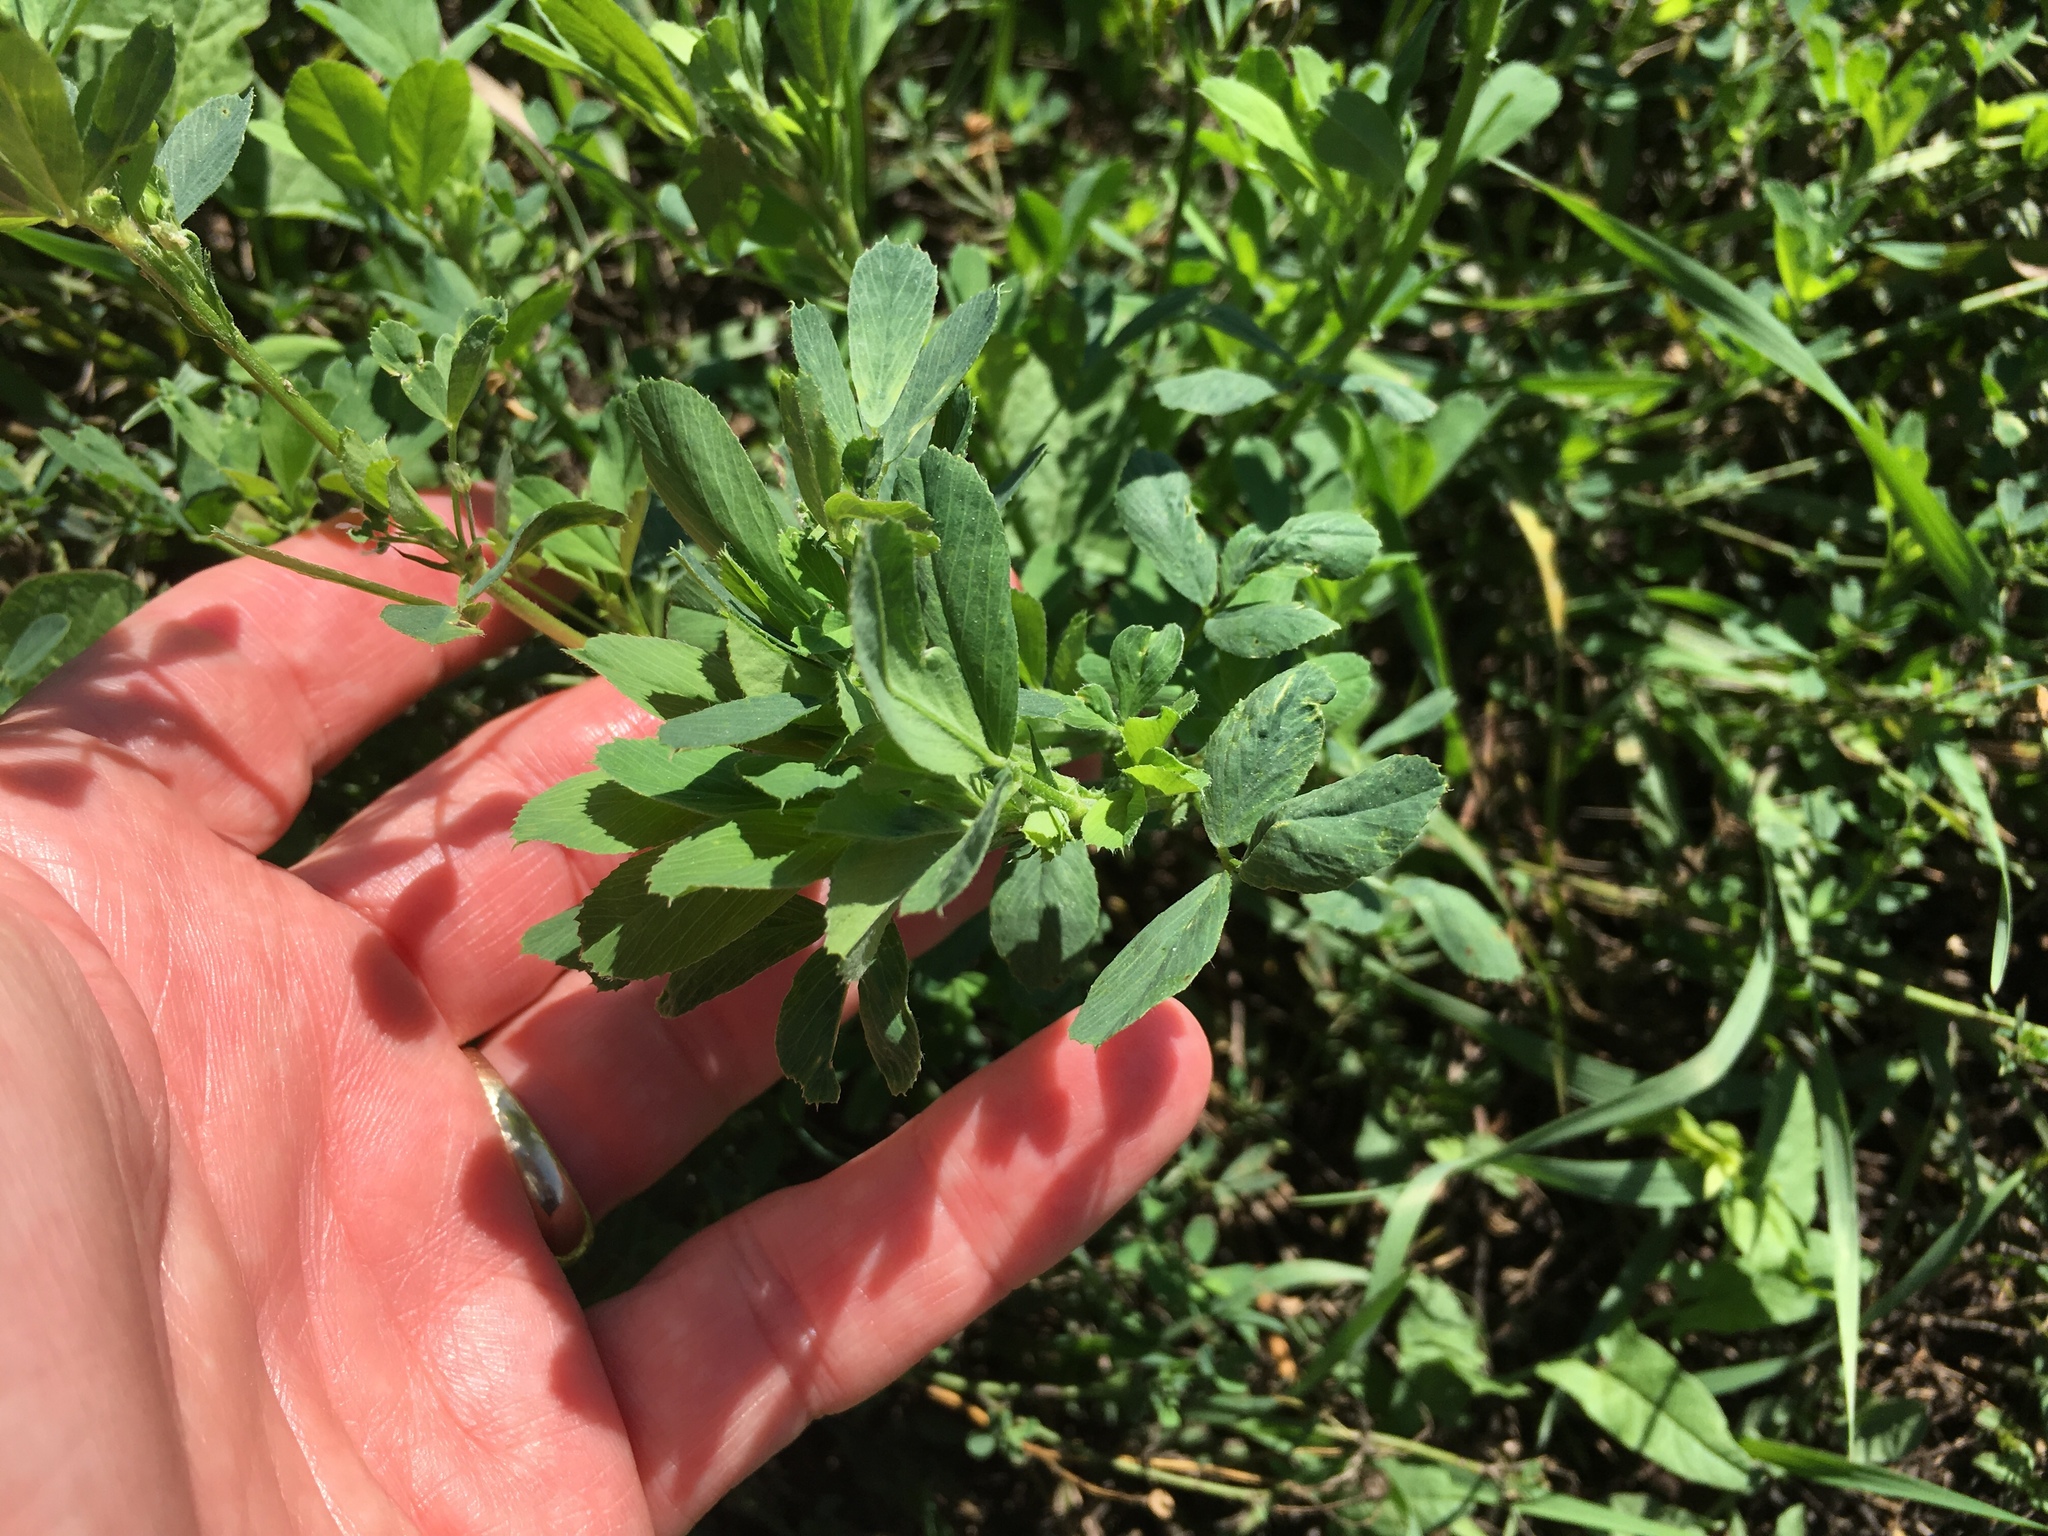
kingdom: Plantae
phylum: Tracheophyta
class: Magnoliopsida
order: Fabales
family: Fabaceae
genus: Medicago
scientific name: Medicago sativa
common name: Alfalfa
